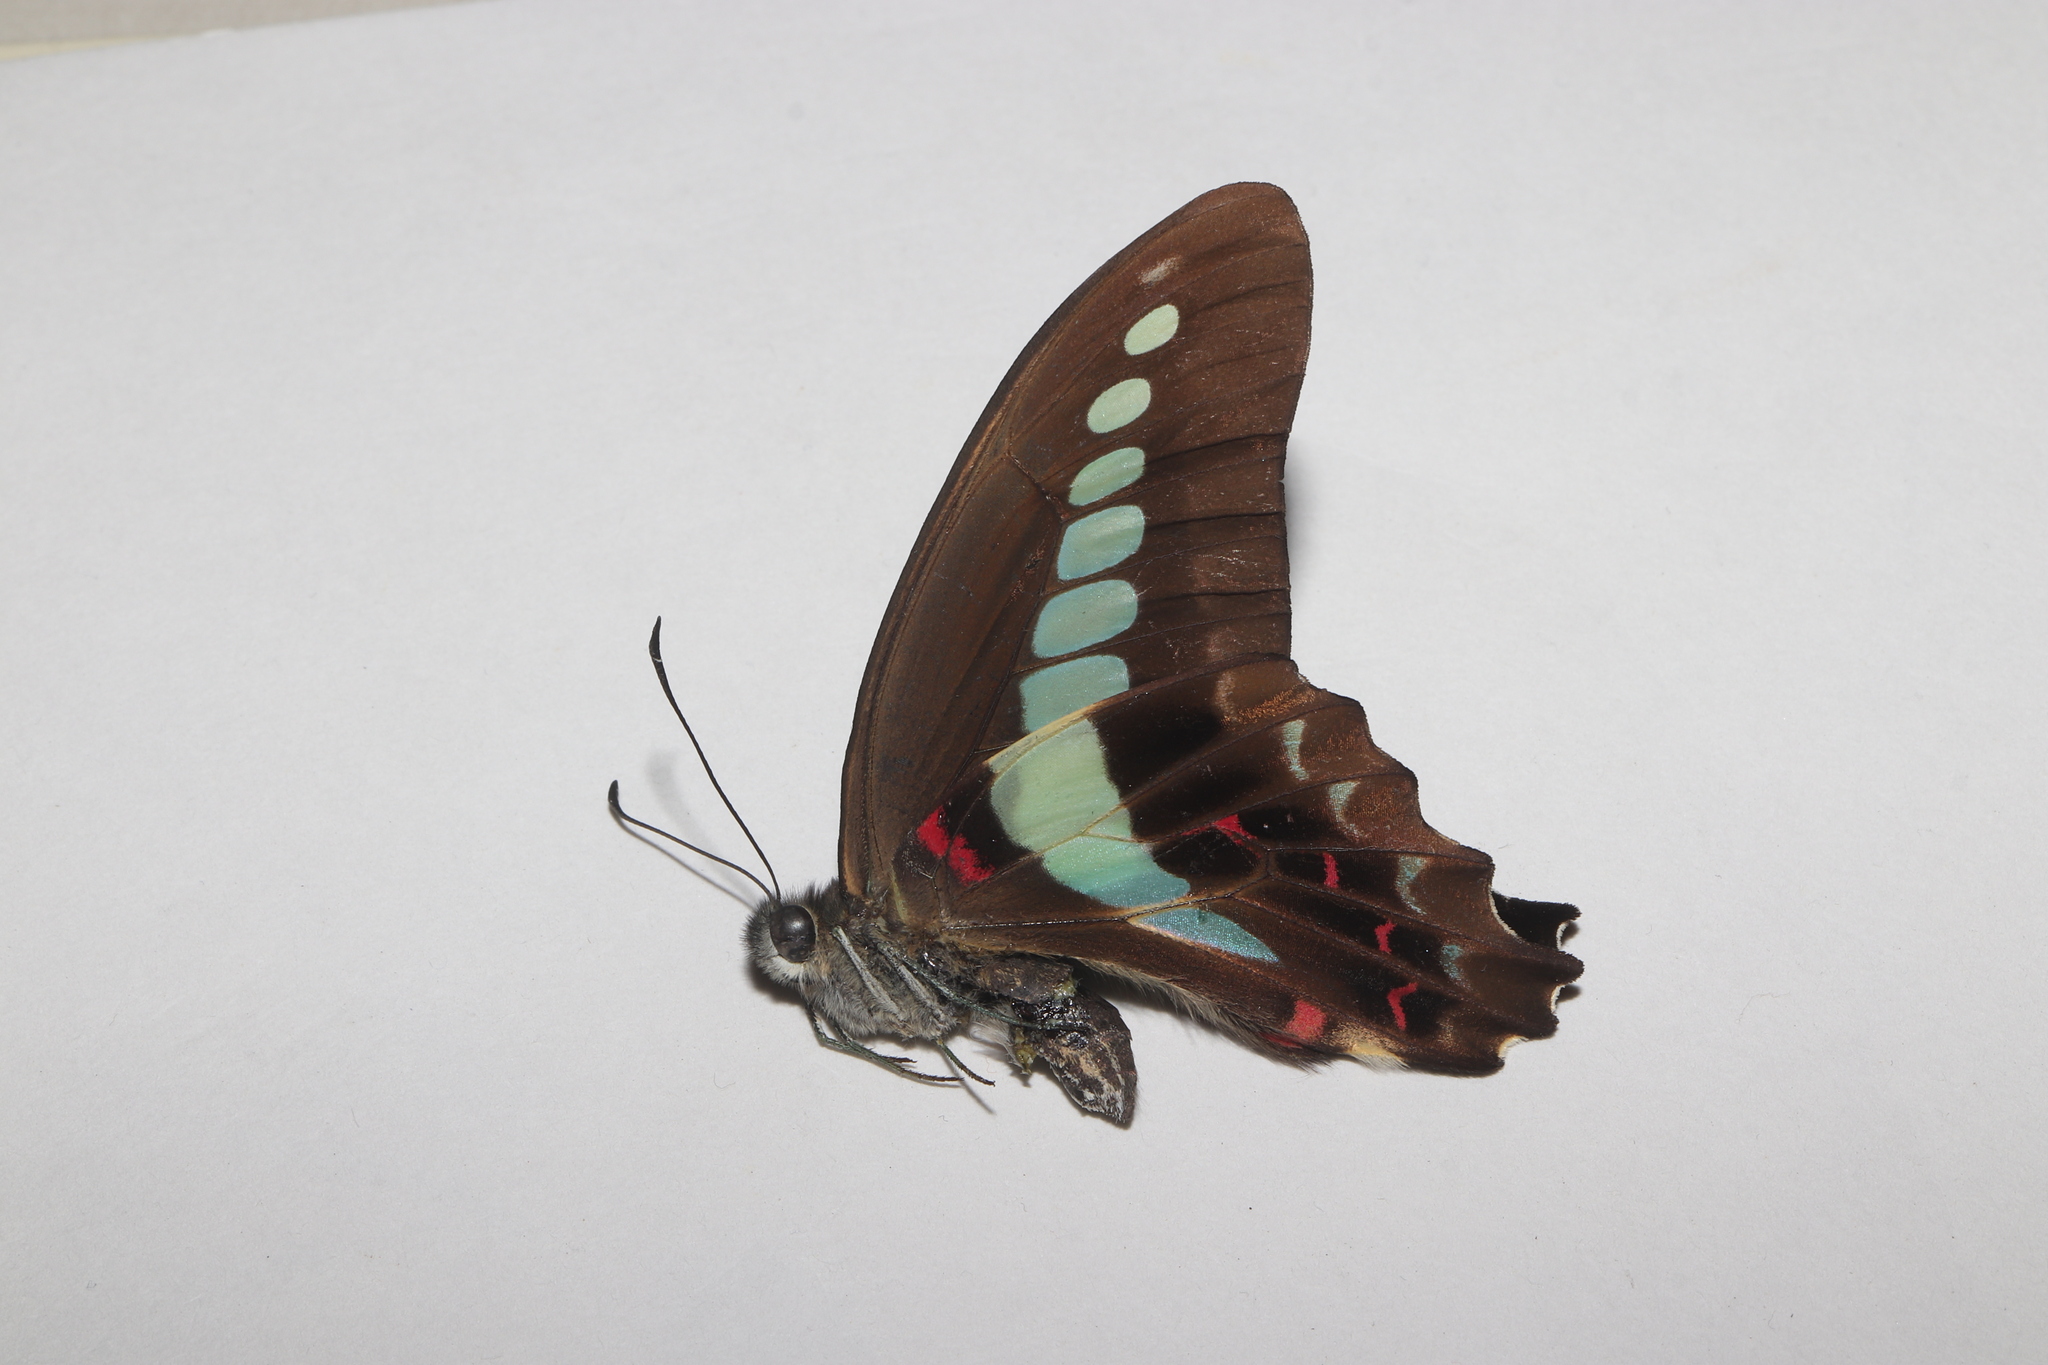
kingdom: Fungi
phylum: Ascomycota
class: Sordariomycetes
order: Microascales
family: Microascaceae
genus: Graphium
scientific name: Graphium sarpedon
